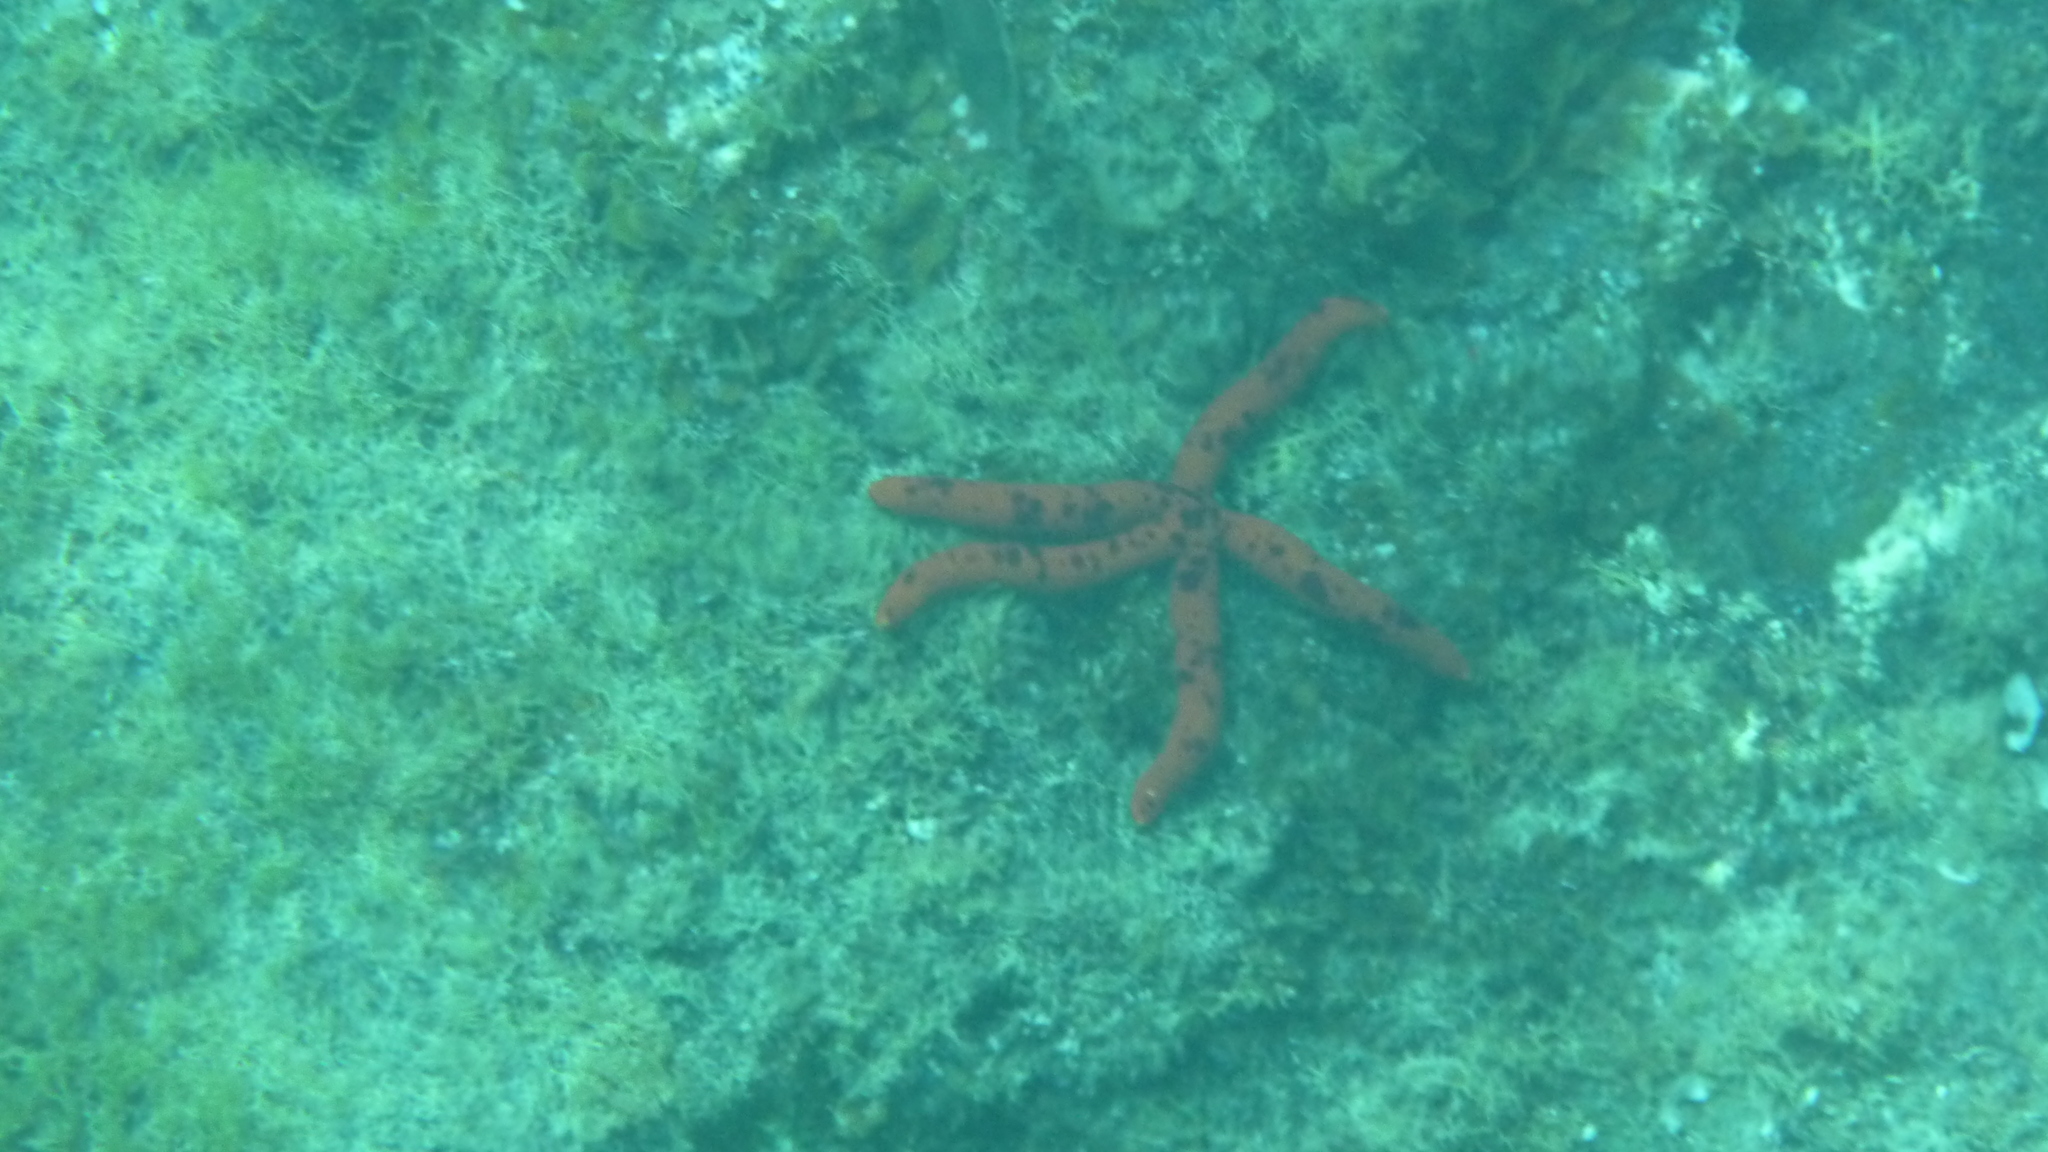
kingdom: Animalia
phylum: Echinodermata
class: Asteroidea
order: Valvatida
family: Ophidiasteridae
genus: Ophidiaster
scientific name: Ophidiaster ophidianus
